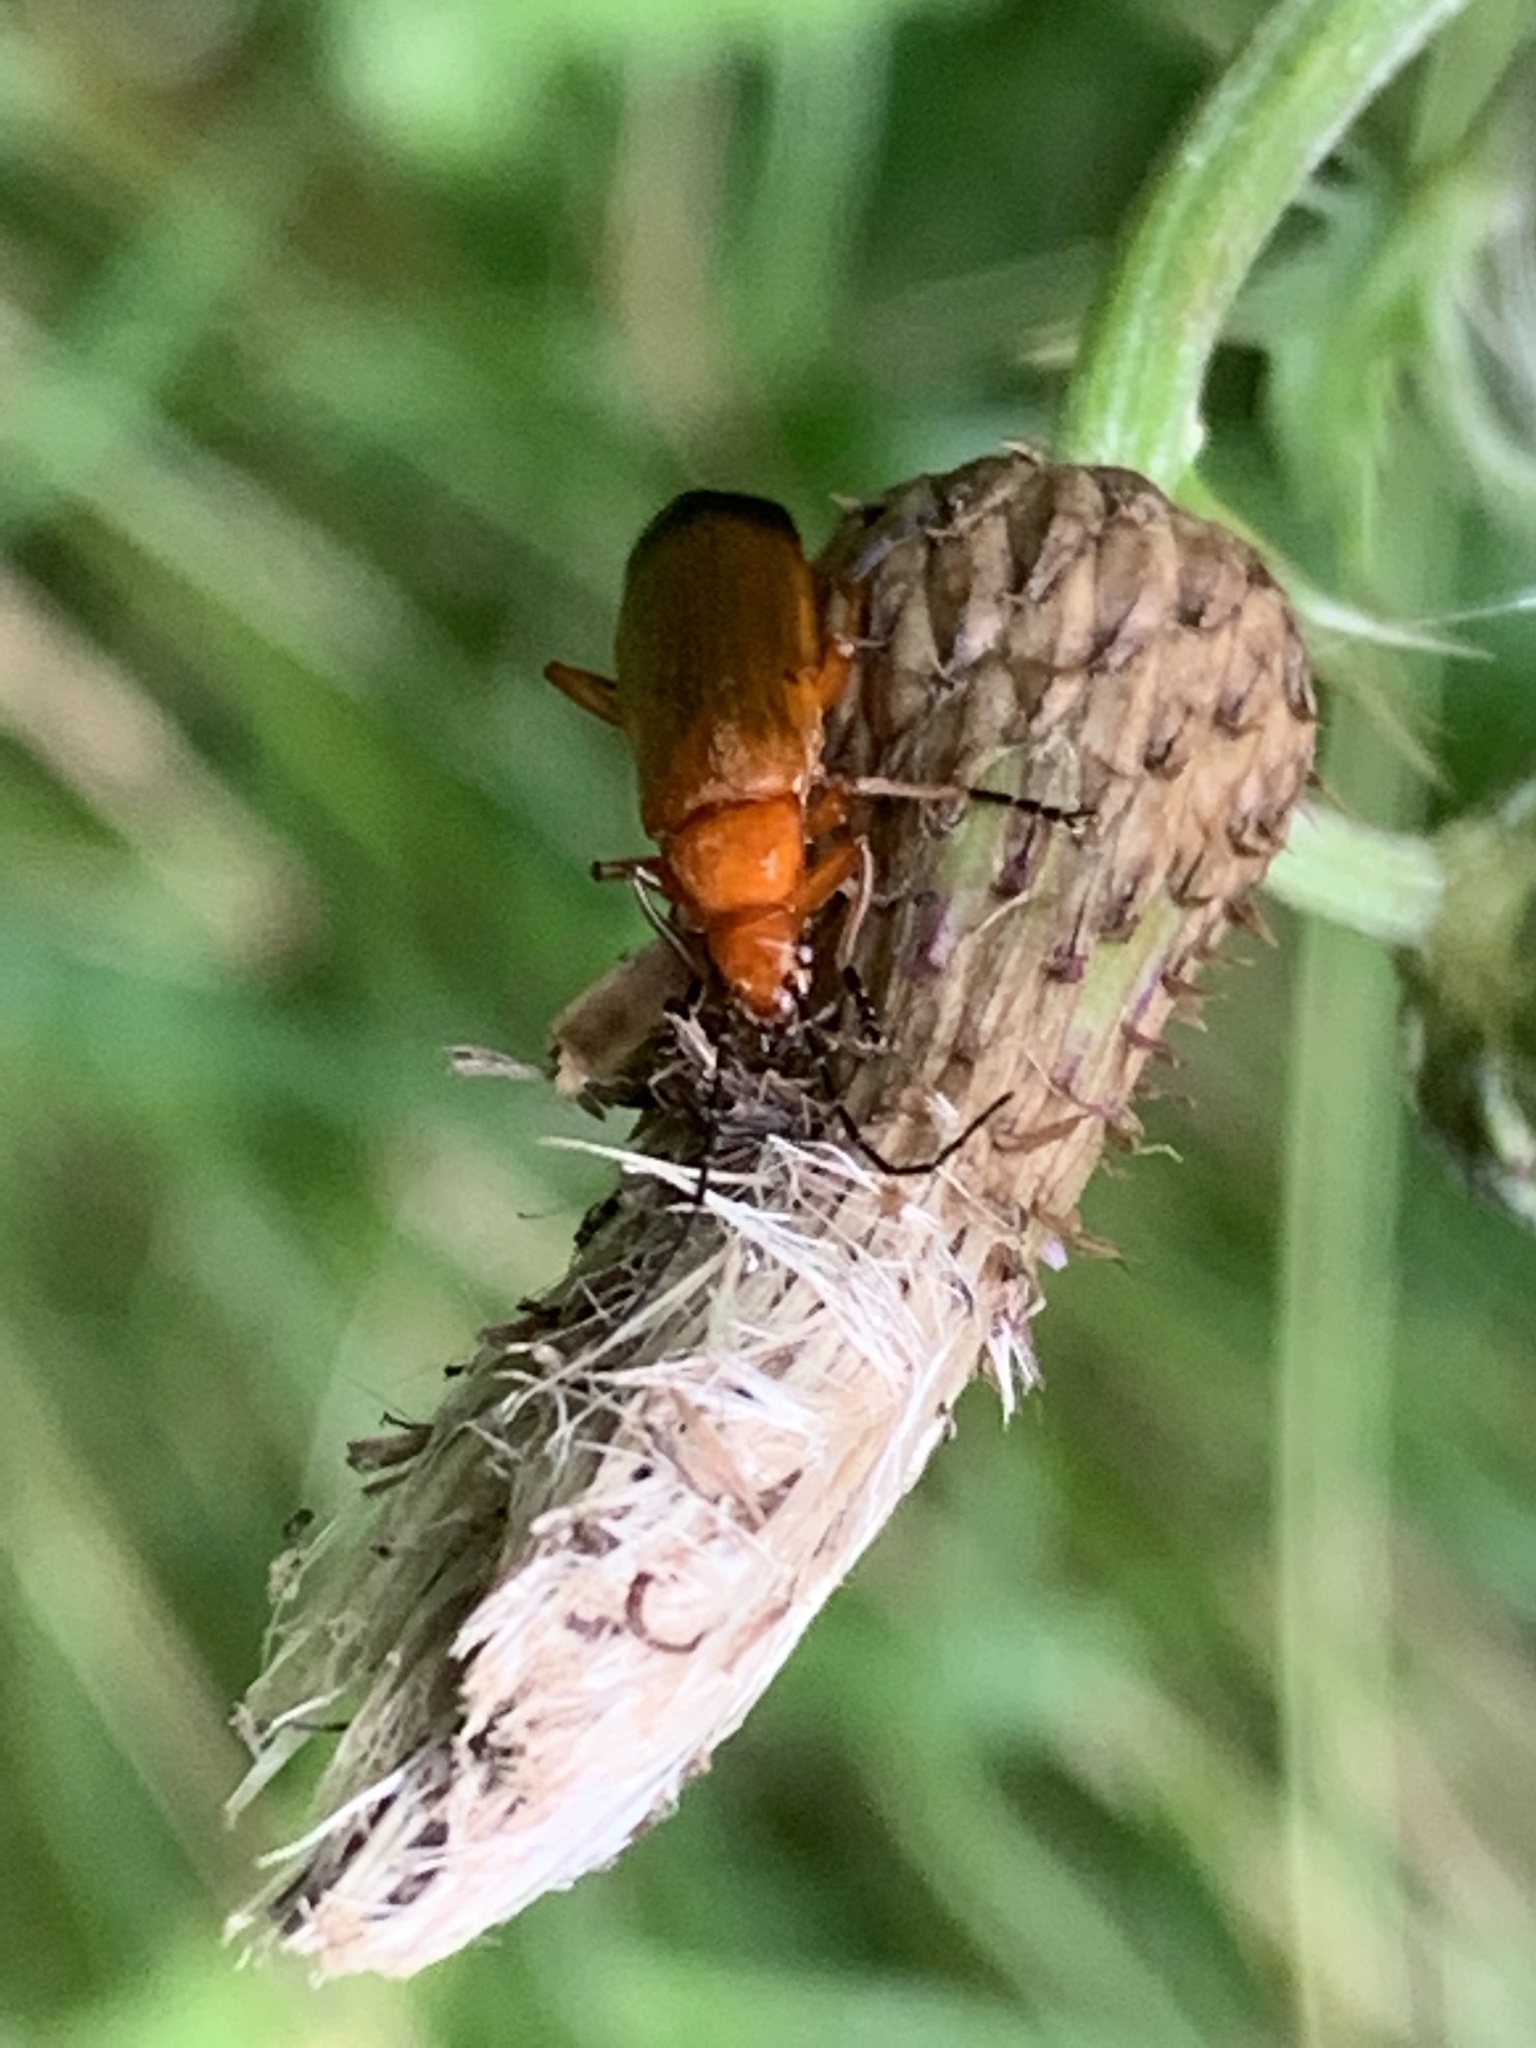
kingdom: Animalia
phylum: Arthropoda
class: Insecta
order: Coleoptera
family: Cantharidae
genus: Rhagonycha
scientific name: Rhagonycha fulva
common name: Common red soldier beetle
